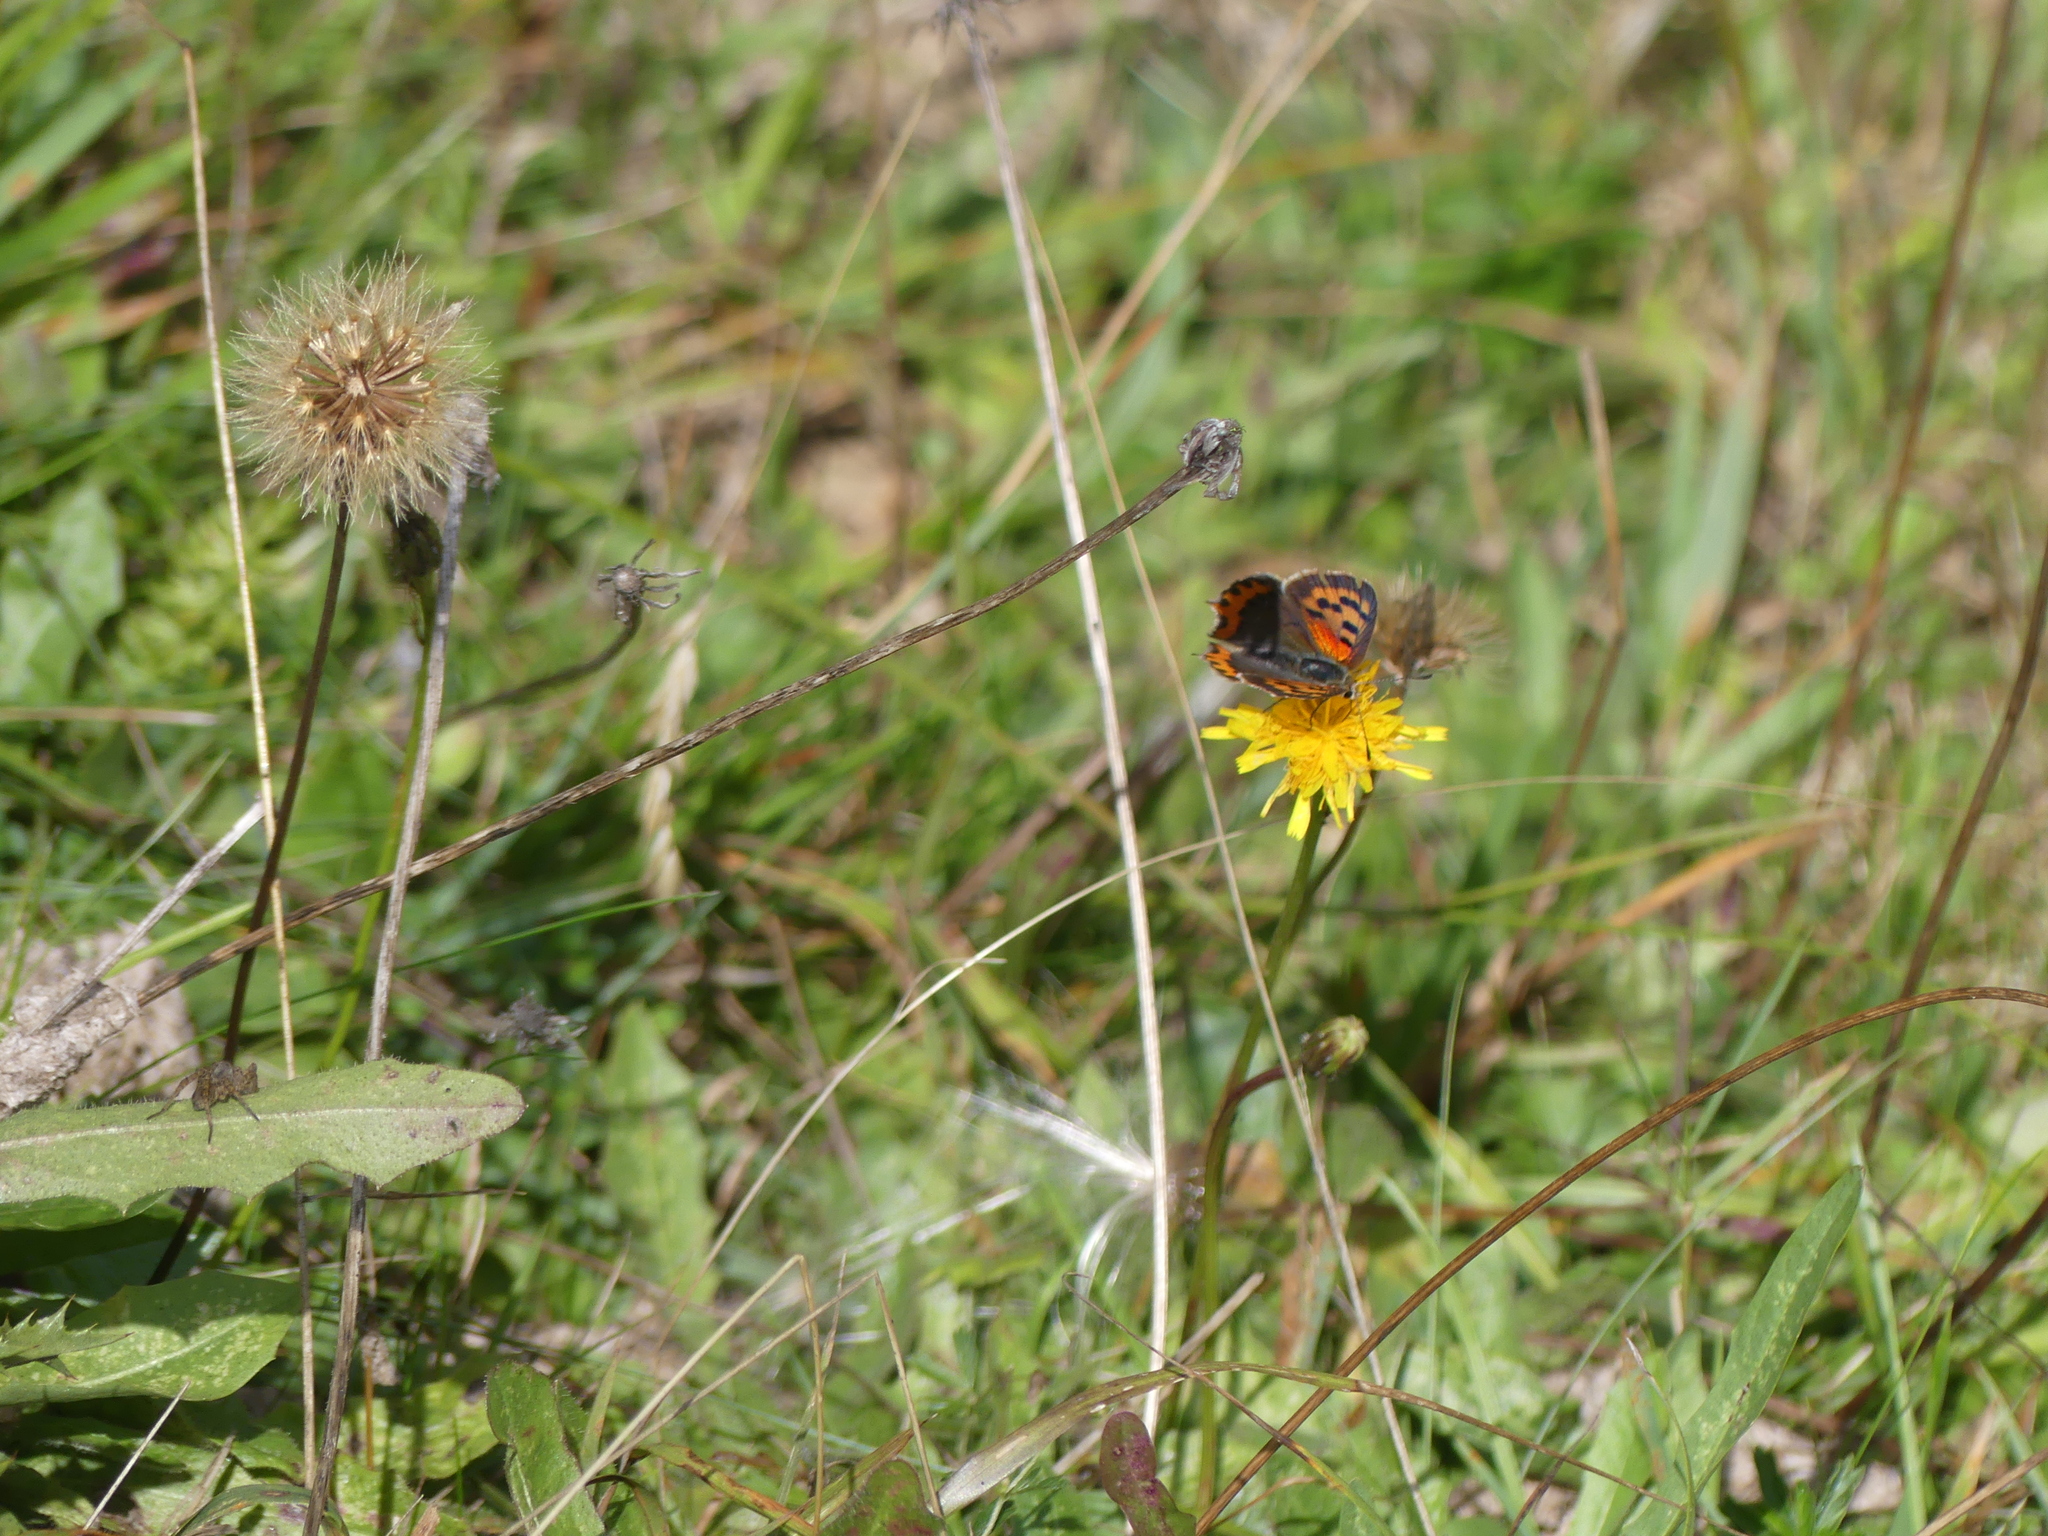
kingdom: Animalia
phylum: Arthropoda
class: Insecta
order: Lepidoptera
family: Lycaenidae
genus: Lycaena
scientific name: Lycaena phlaeas
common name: Small copper
